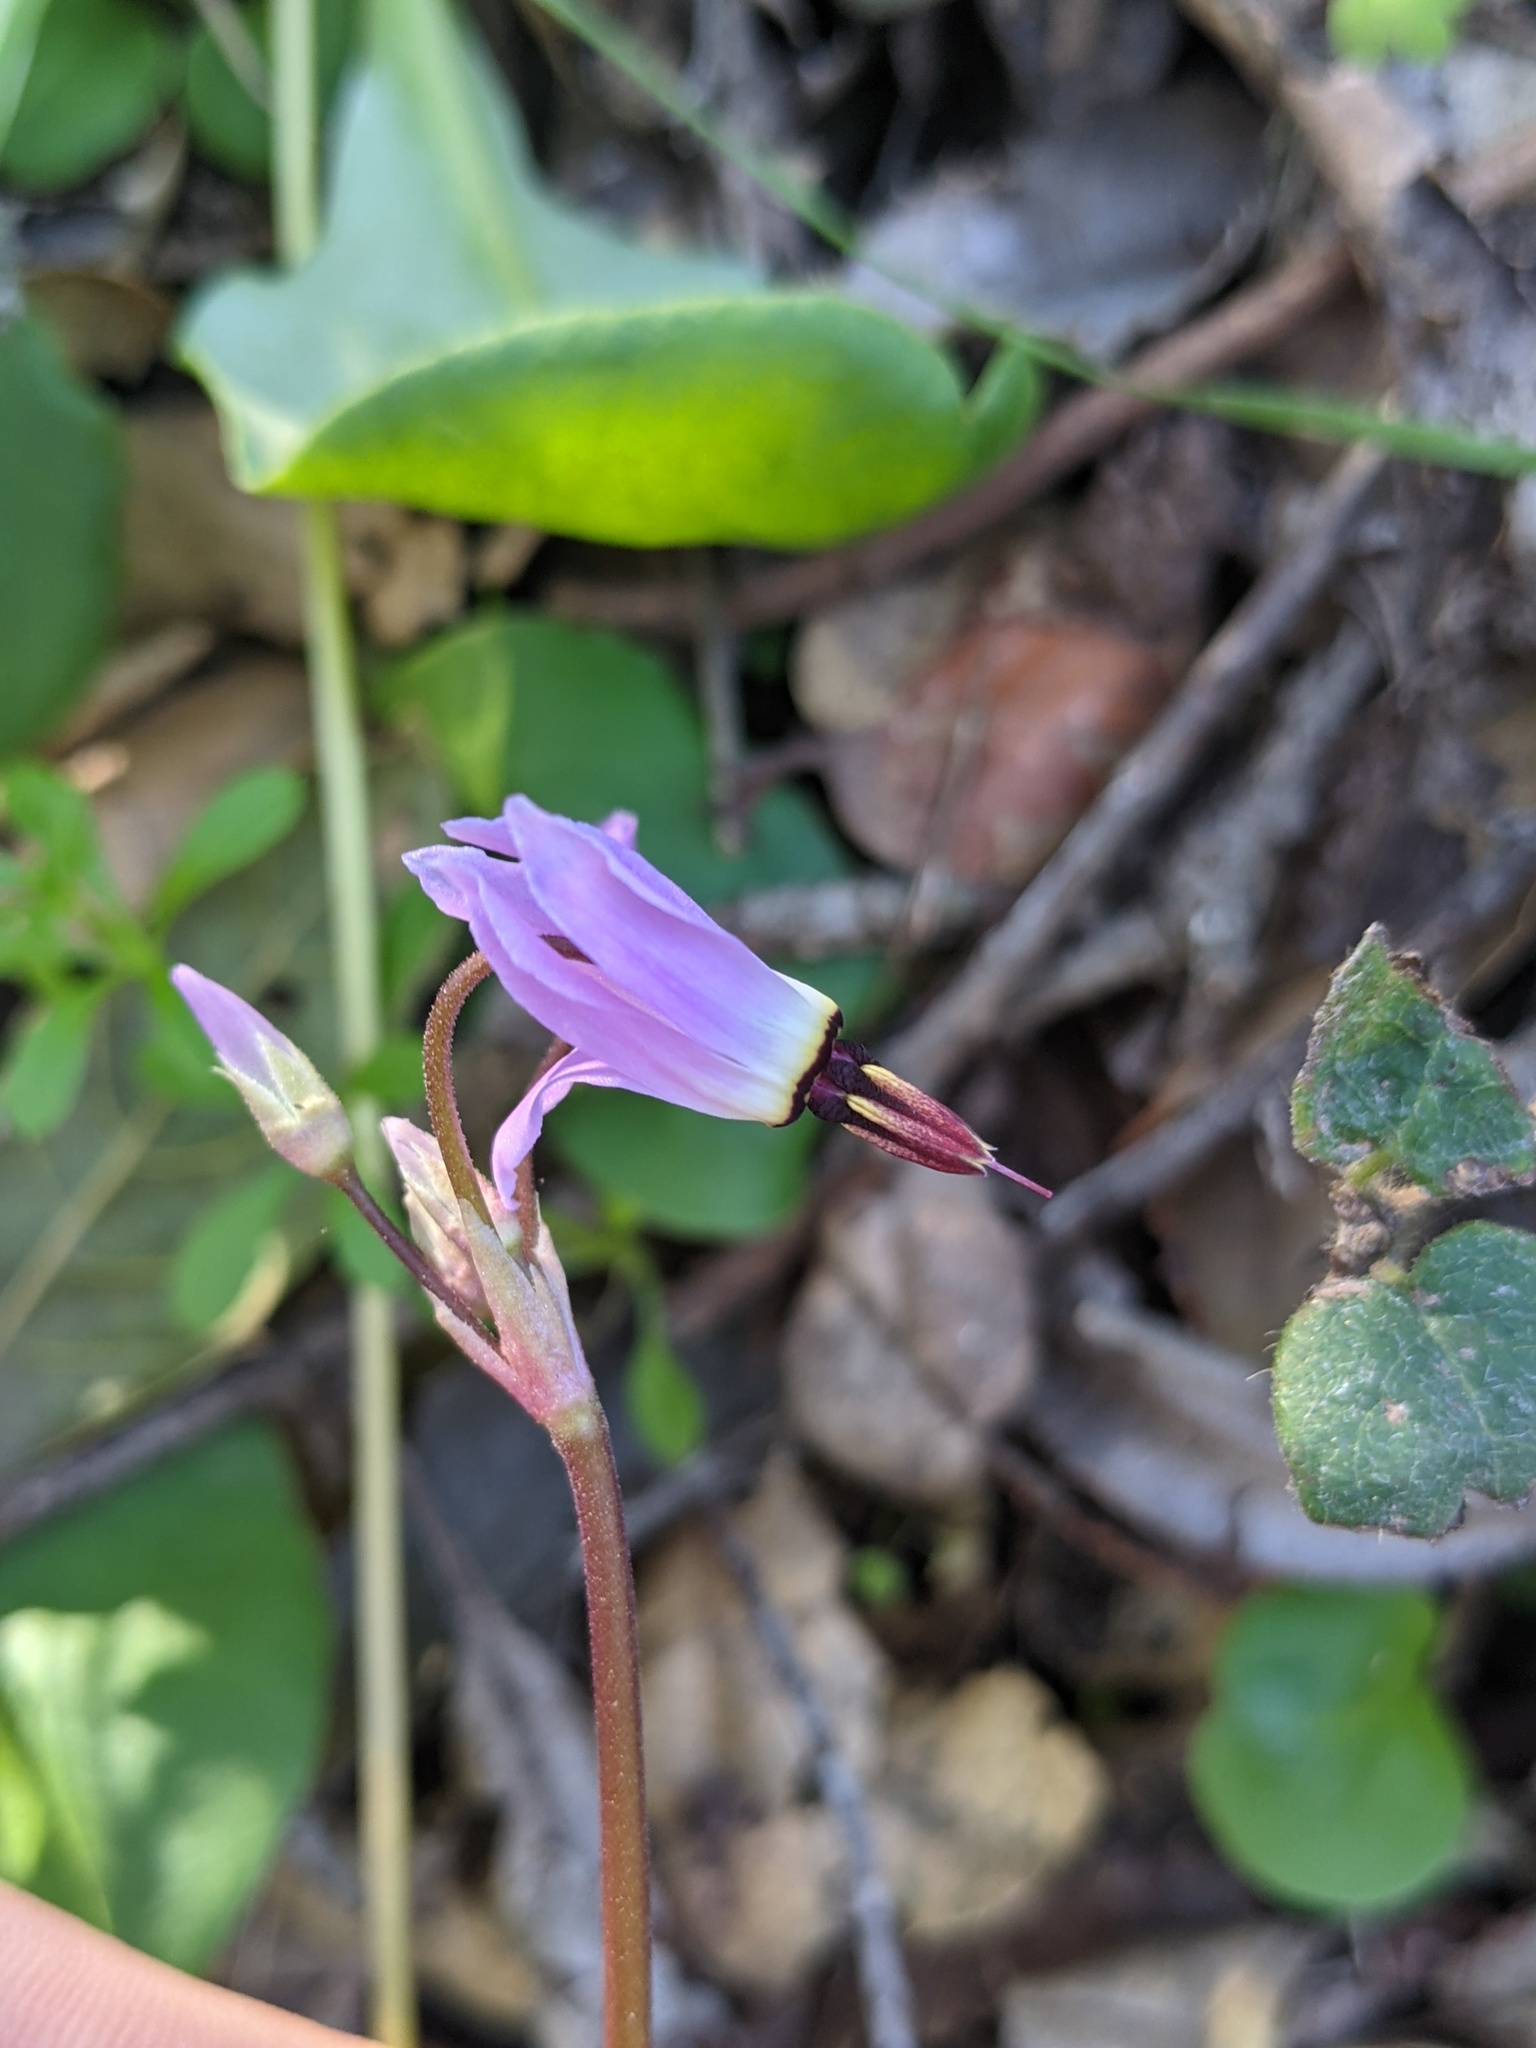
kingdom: Plantae
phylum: Tracheophyta
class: Magnoliopsida
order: Ericales
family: Primulaceae
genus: Dodecatheon
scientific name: Dodecatheon hendersonii
